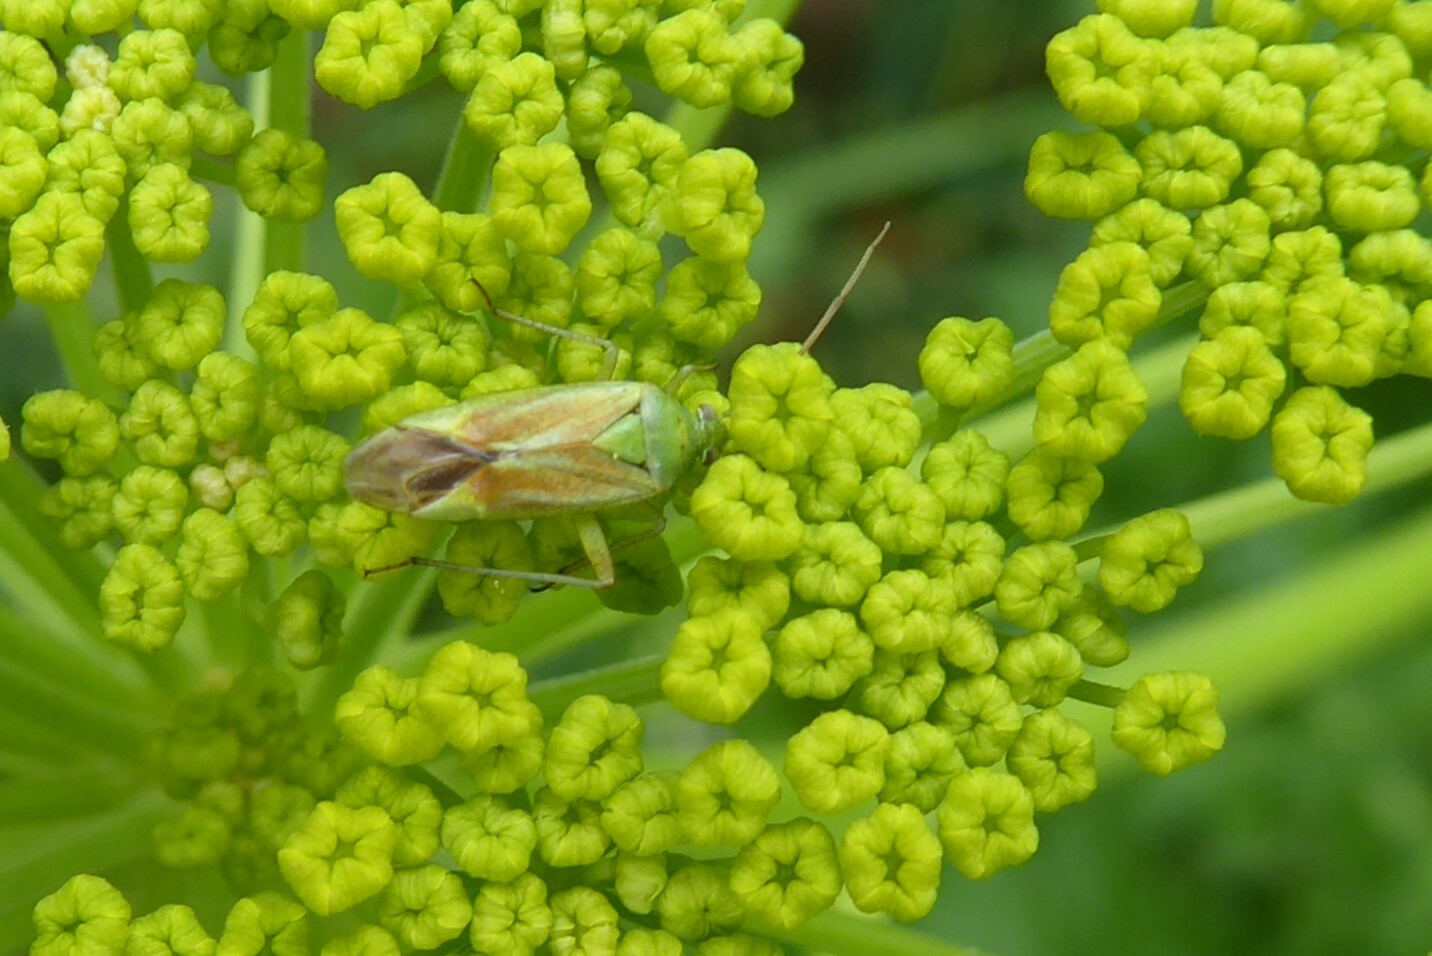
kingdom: Animalia
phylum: Arthropoda
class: Insecta
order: Hemiptera
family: Miridae
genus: Closterotomus
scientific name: Closterotomus norvegicus
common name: Plant bug
